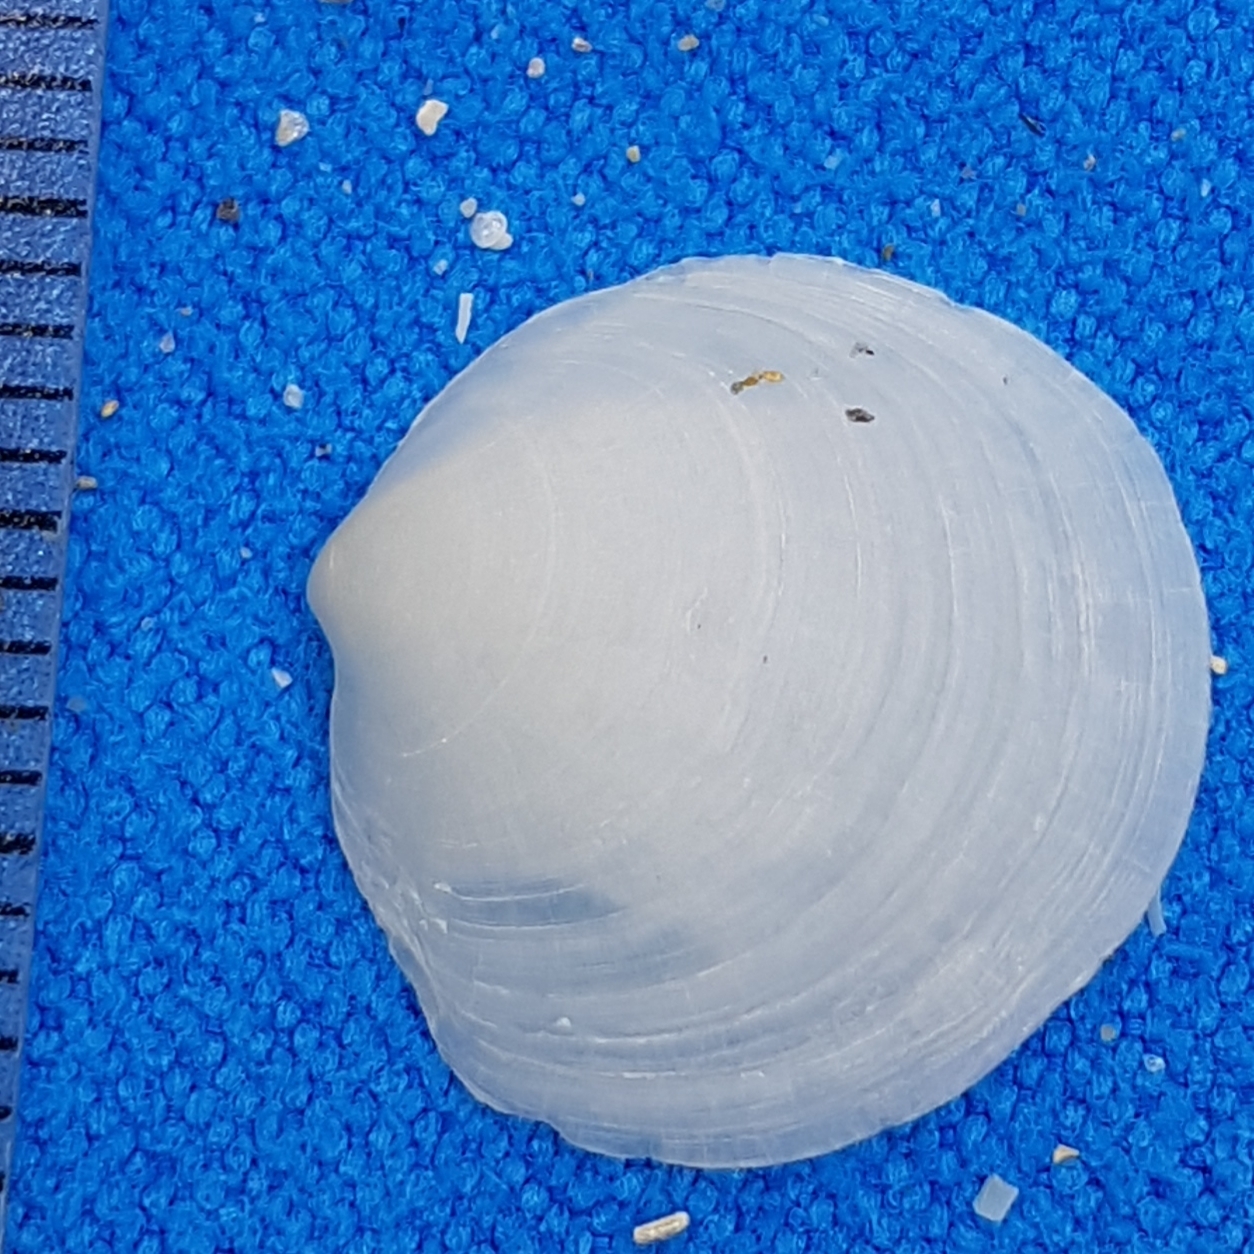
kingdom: Animalia
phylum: Mollusca
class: Bivalvia
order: Lucinida
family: Lucinidae
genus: Loripes
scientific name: Loripes orbiculatus
